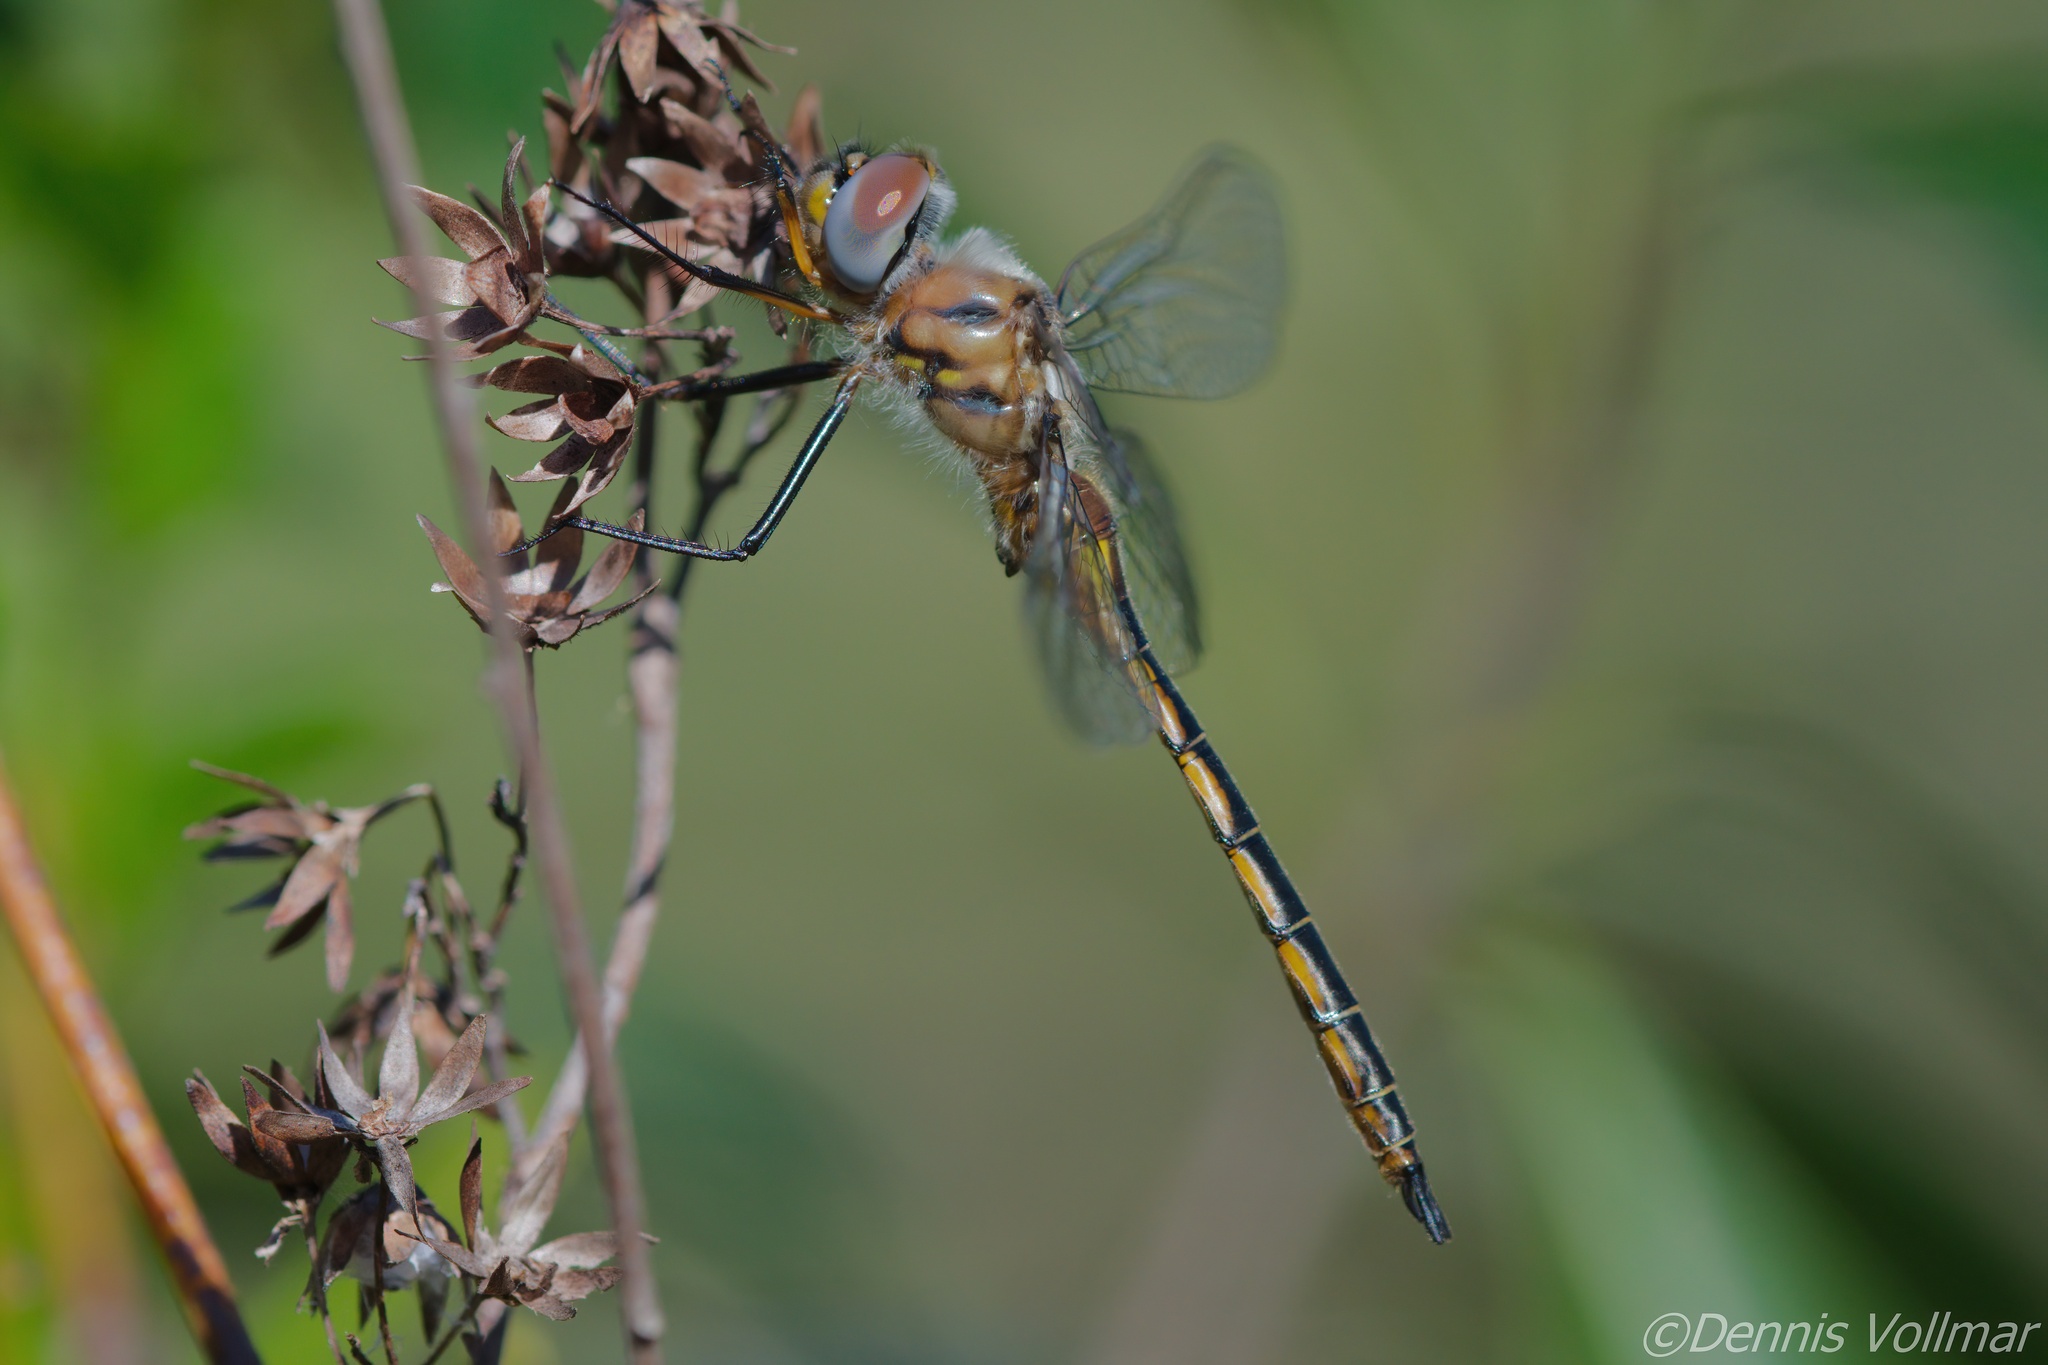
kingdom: Animalia
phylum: Arthropoda
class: Insecta
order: Odonata
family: Corduliidae
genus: Epitheca
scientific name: Epitheca stella
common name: Florida baskettail
